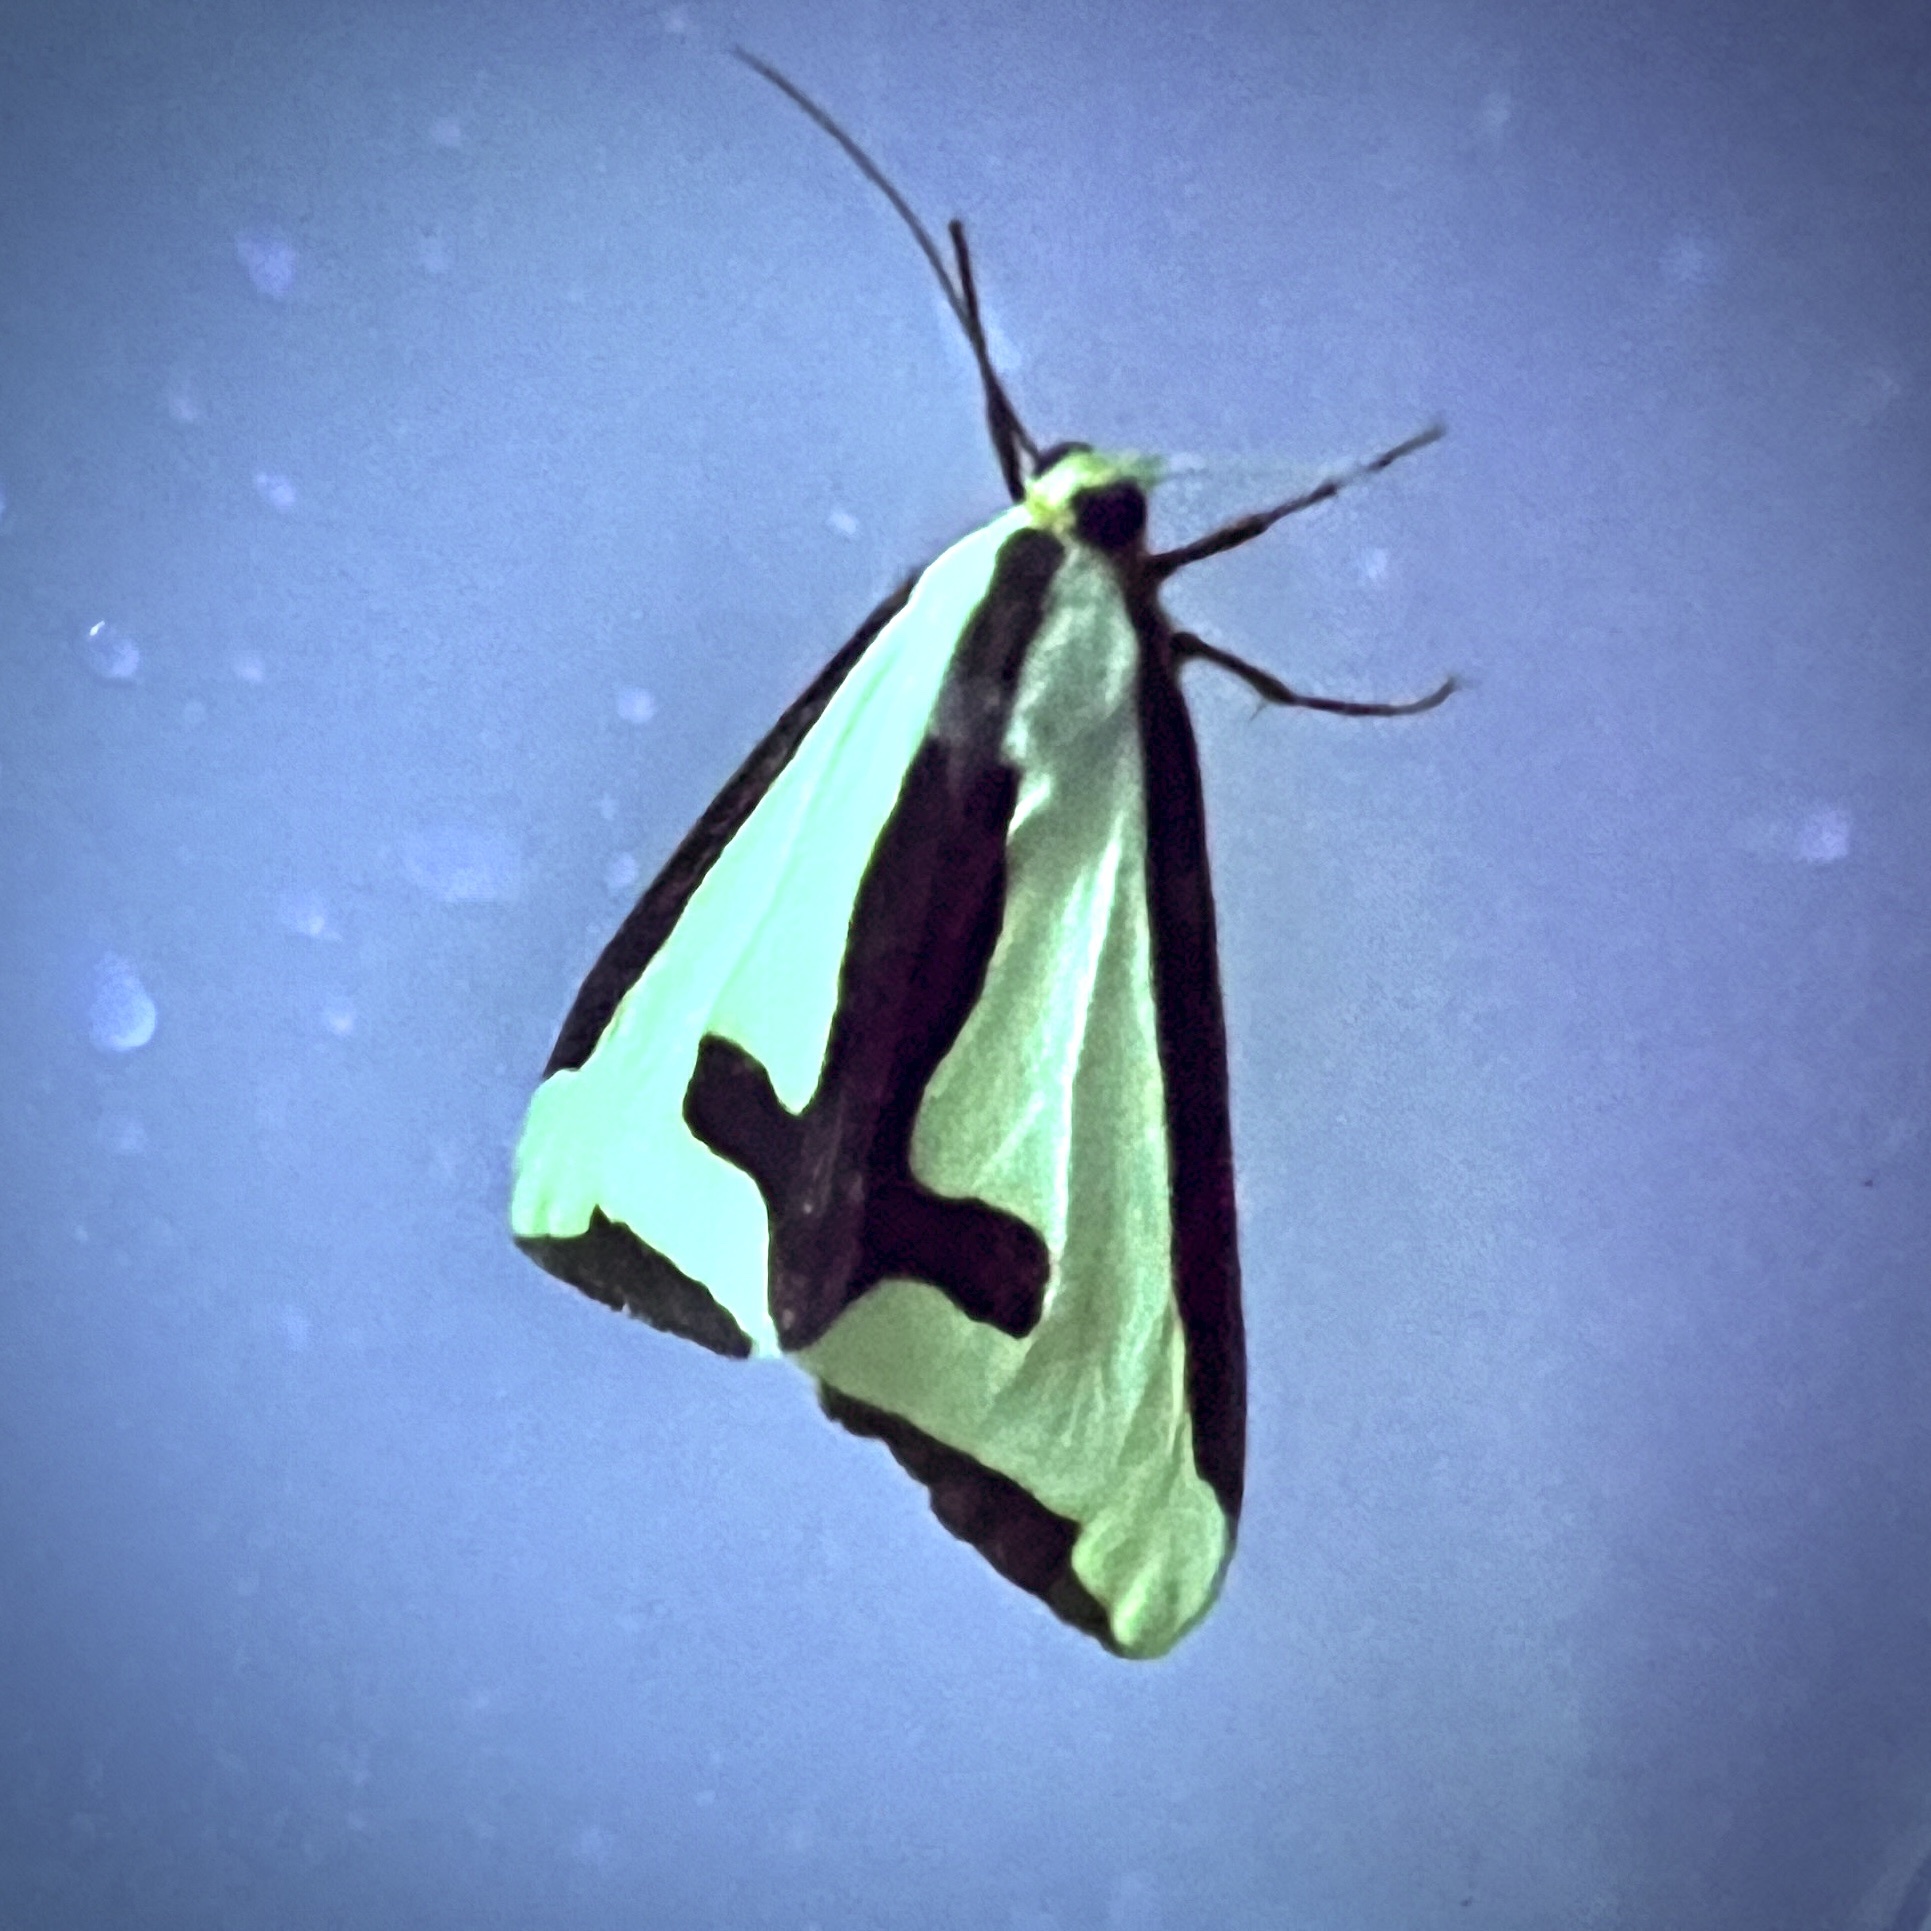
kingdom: Animalia
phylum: Arthropoda
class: Insecta
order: Lepidoptera
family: Erebidae
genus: Haploa
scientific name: Haploa clymene
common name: Clymene moth
